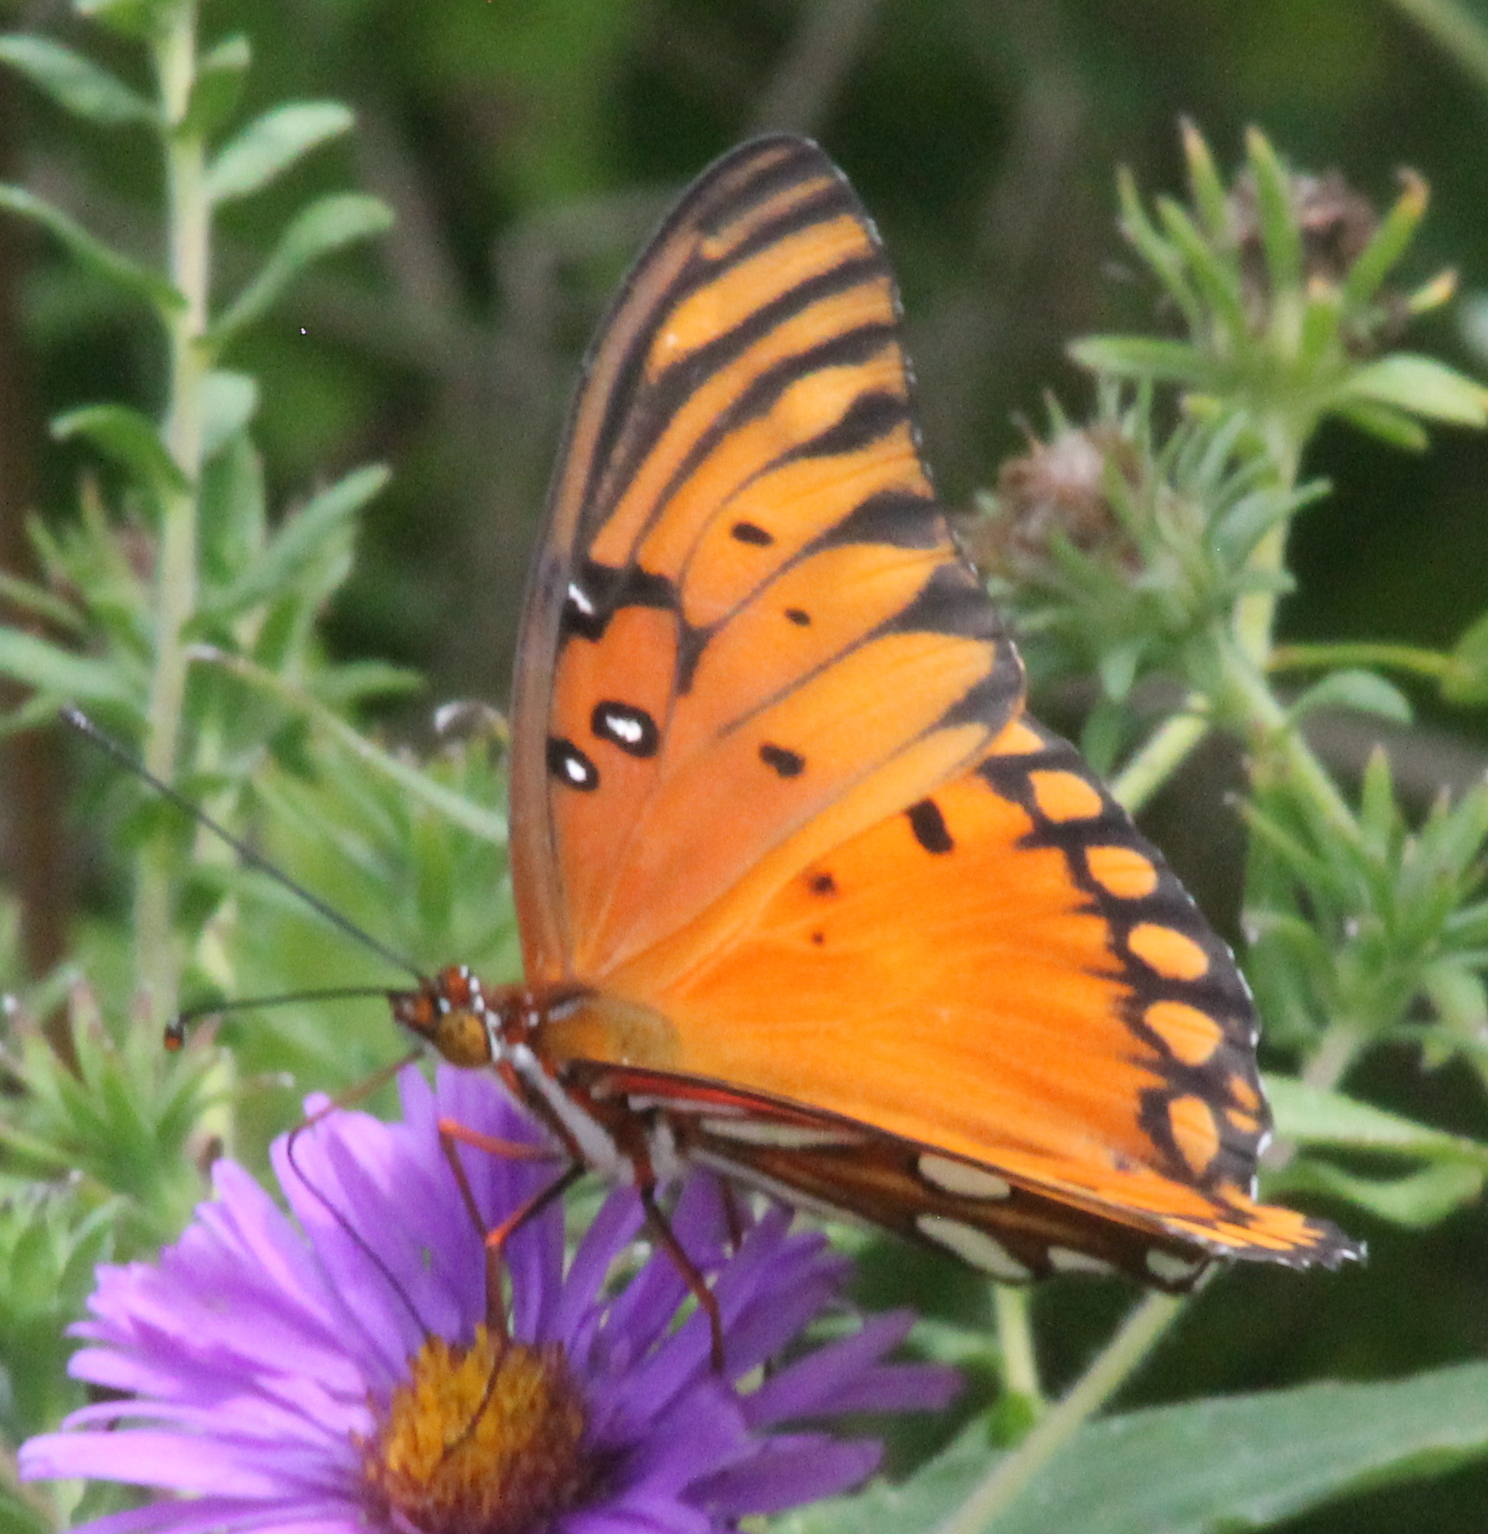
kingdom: Animalia
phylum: Arthropoda
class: Insecta
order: Lepidoptera
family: Nymphalidae
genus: Dione
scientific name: Dione vanillae
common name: Gulf fritillary
